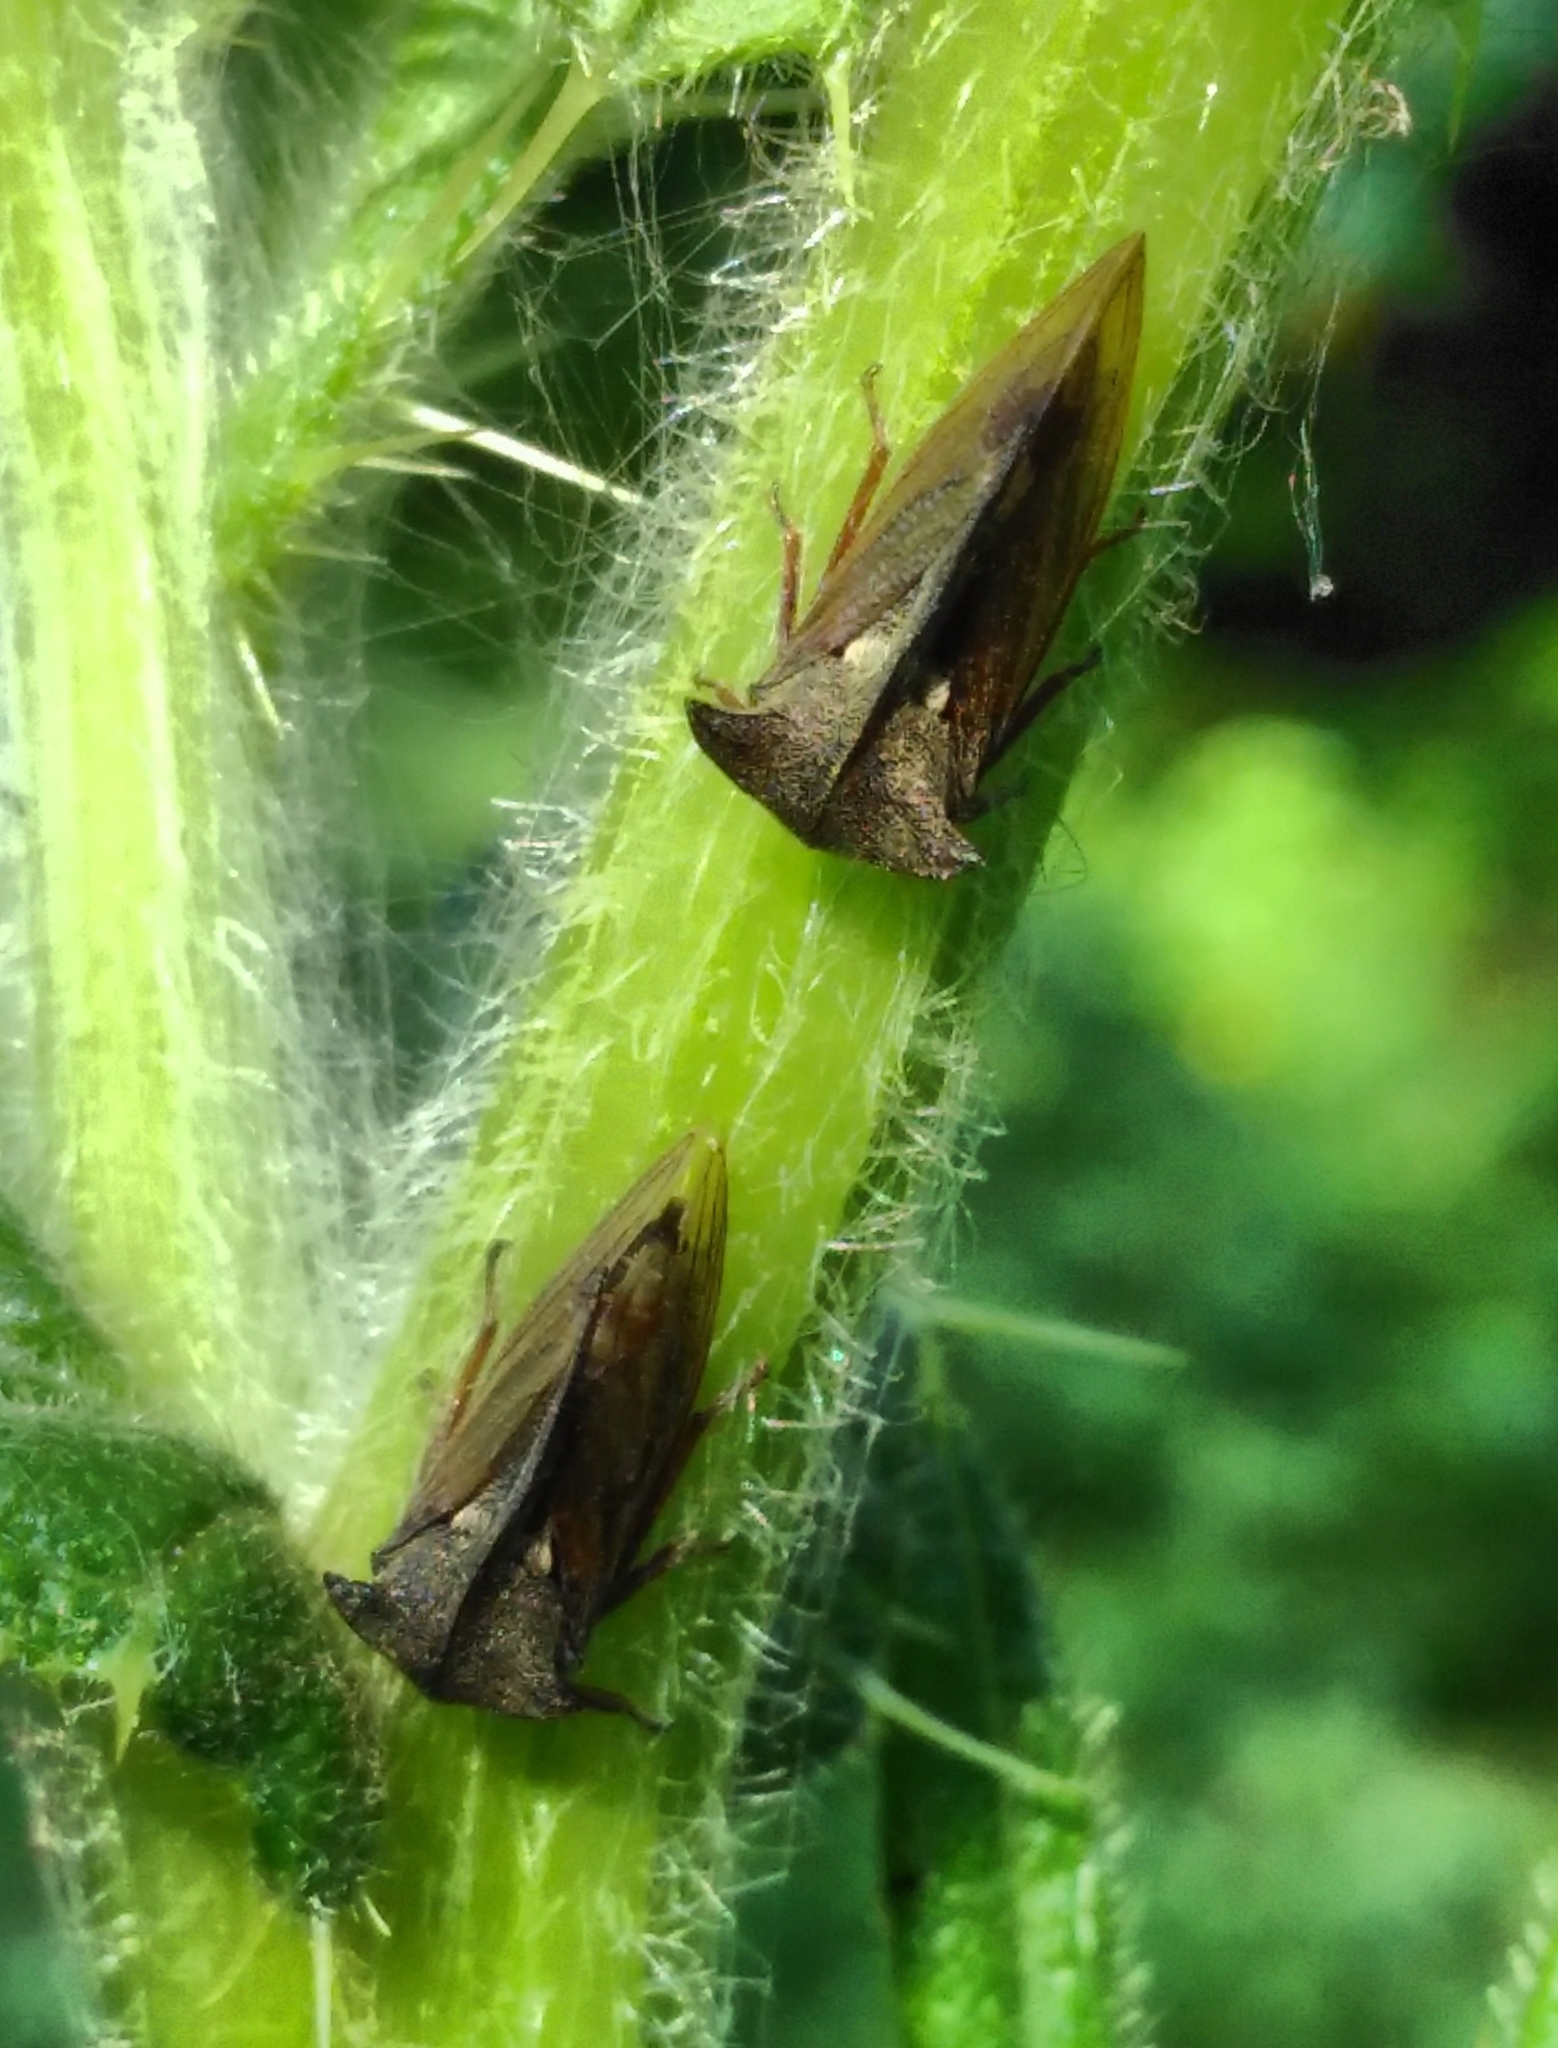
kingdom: Animalia
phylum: Arthropoda
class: Insecta
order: Hemiptera
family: Membracidae
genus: Centrotus
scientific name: Centrotus cornuta
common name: Treehopper
